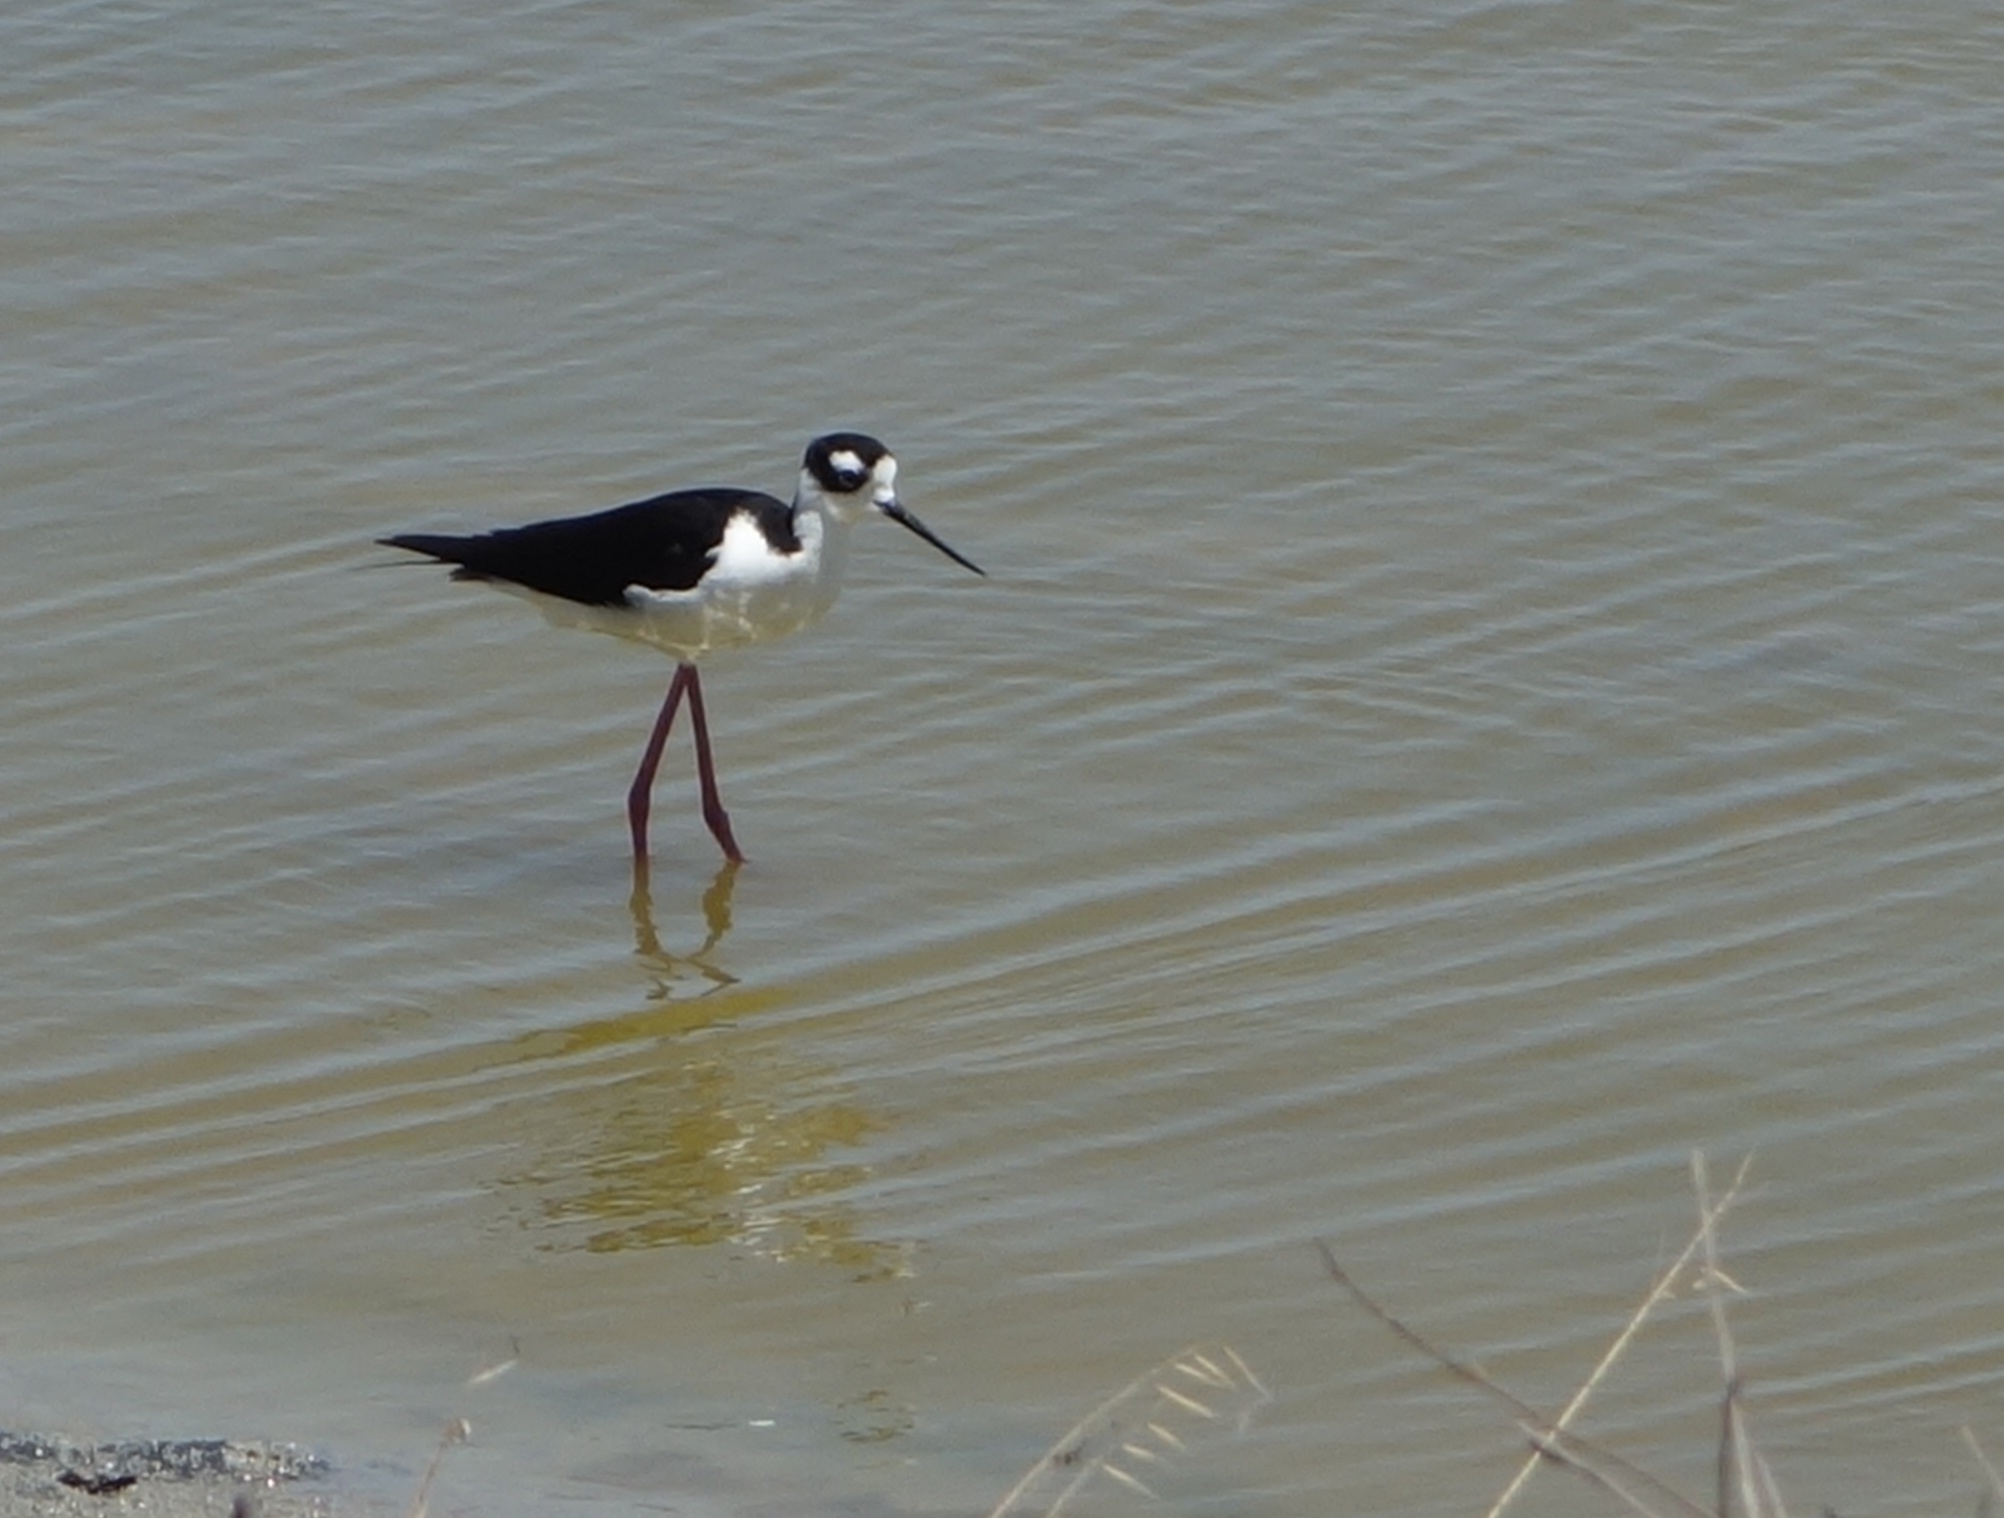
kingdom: Animalia
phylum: Chordata
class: Aves
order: Charadriiformes
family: Recurvirostridae
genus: Himantopus
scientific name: Himantopus mexicanus
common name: Black-necked stilt
